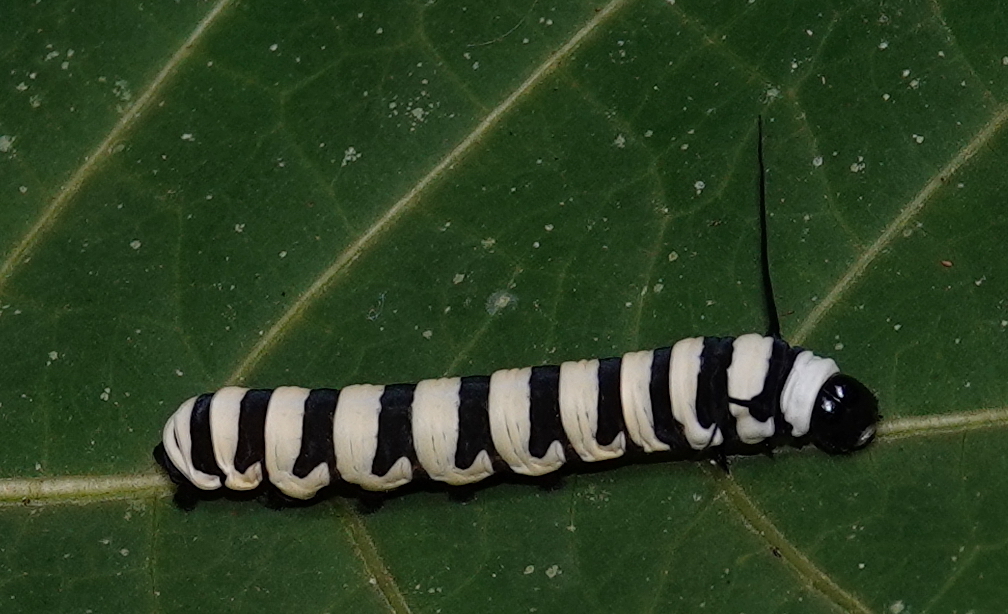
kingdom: Animalia
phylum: Arthropoda
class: Insecta
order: Lepidoptera
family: Nymphalidae
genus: Lycorea
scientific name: Lycorea cleobaea
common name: Tiger mimic-queen
